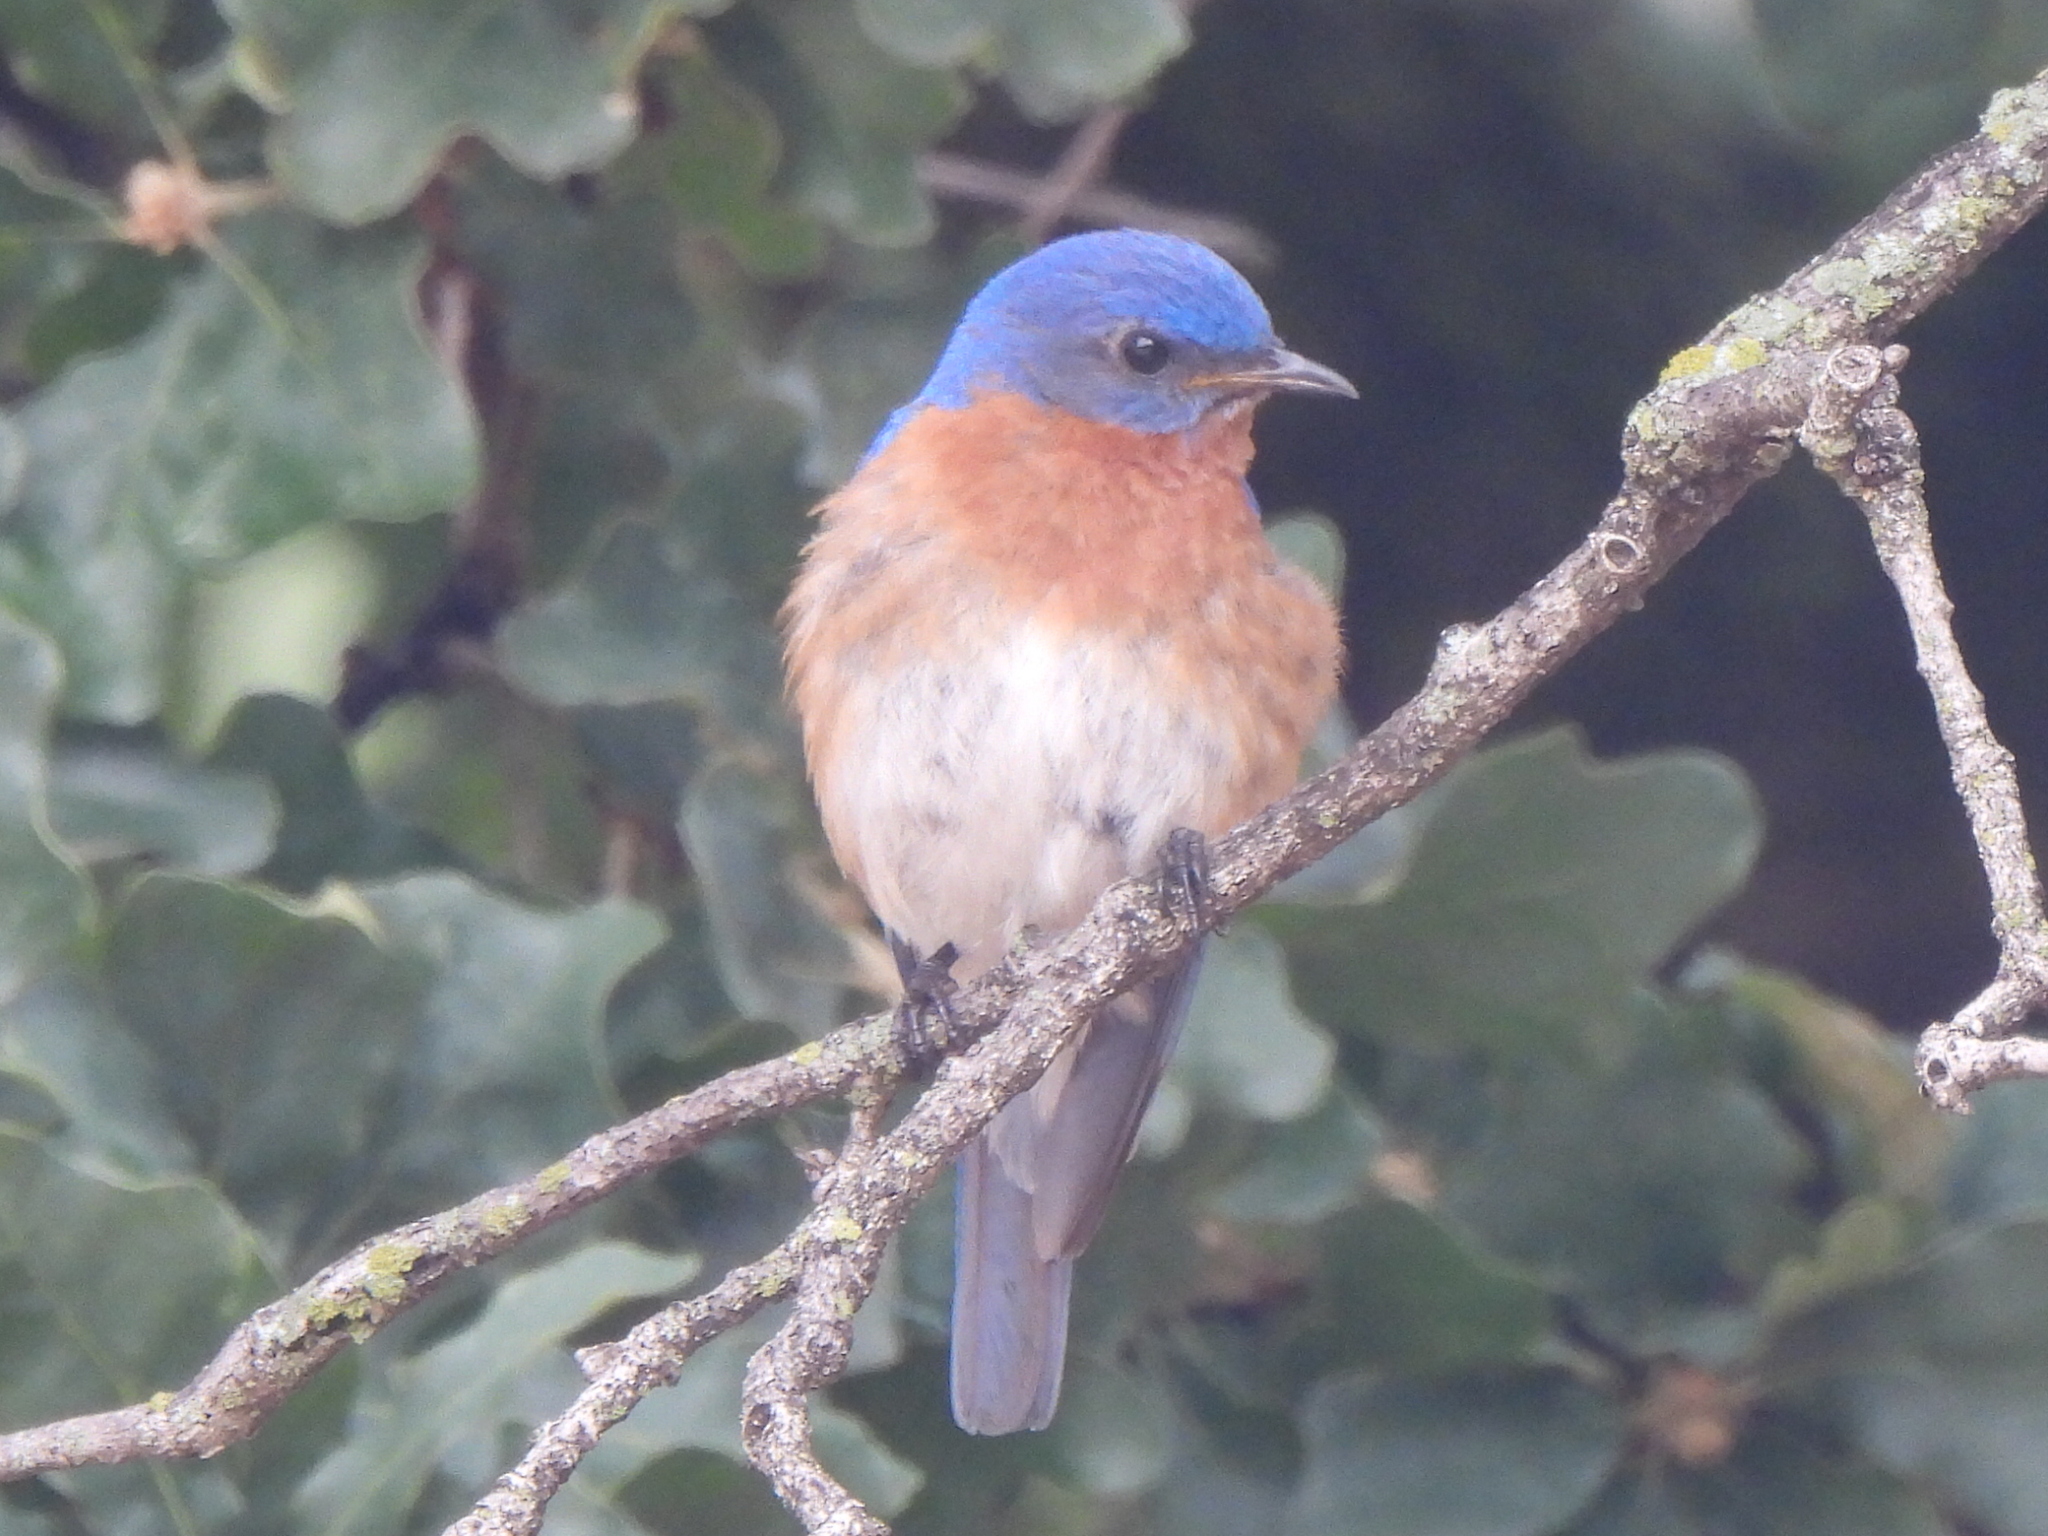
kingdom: Animalia
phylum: Chordata
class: Aves
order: Passeriformes
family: Turdidae
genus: Sialia
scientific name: Sialia sialis
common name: Eastern bluebird
